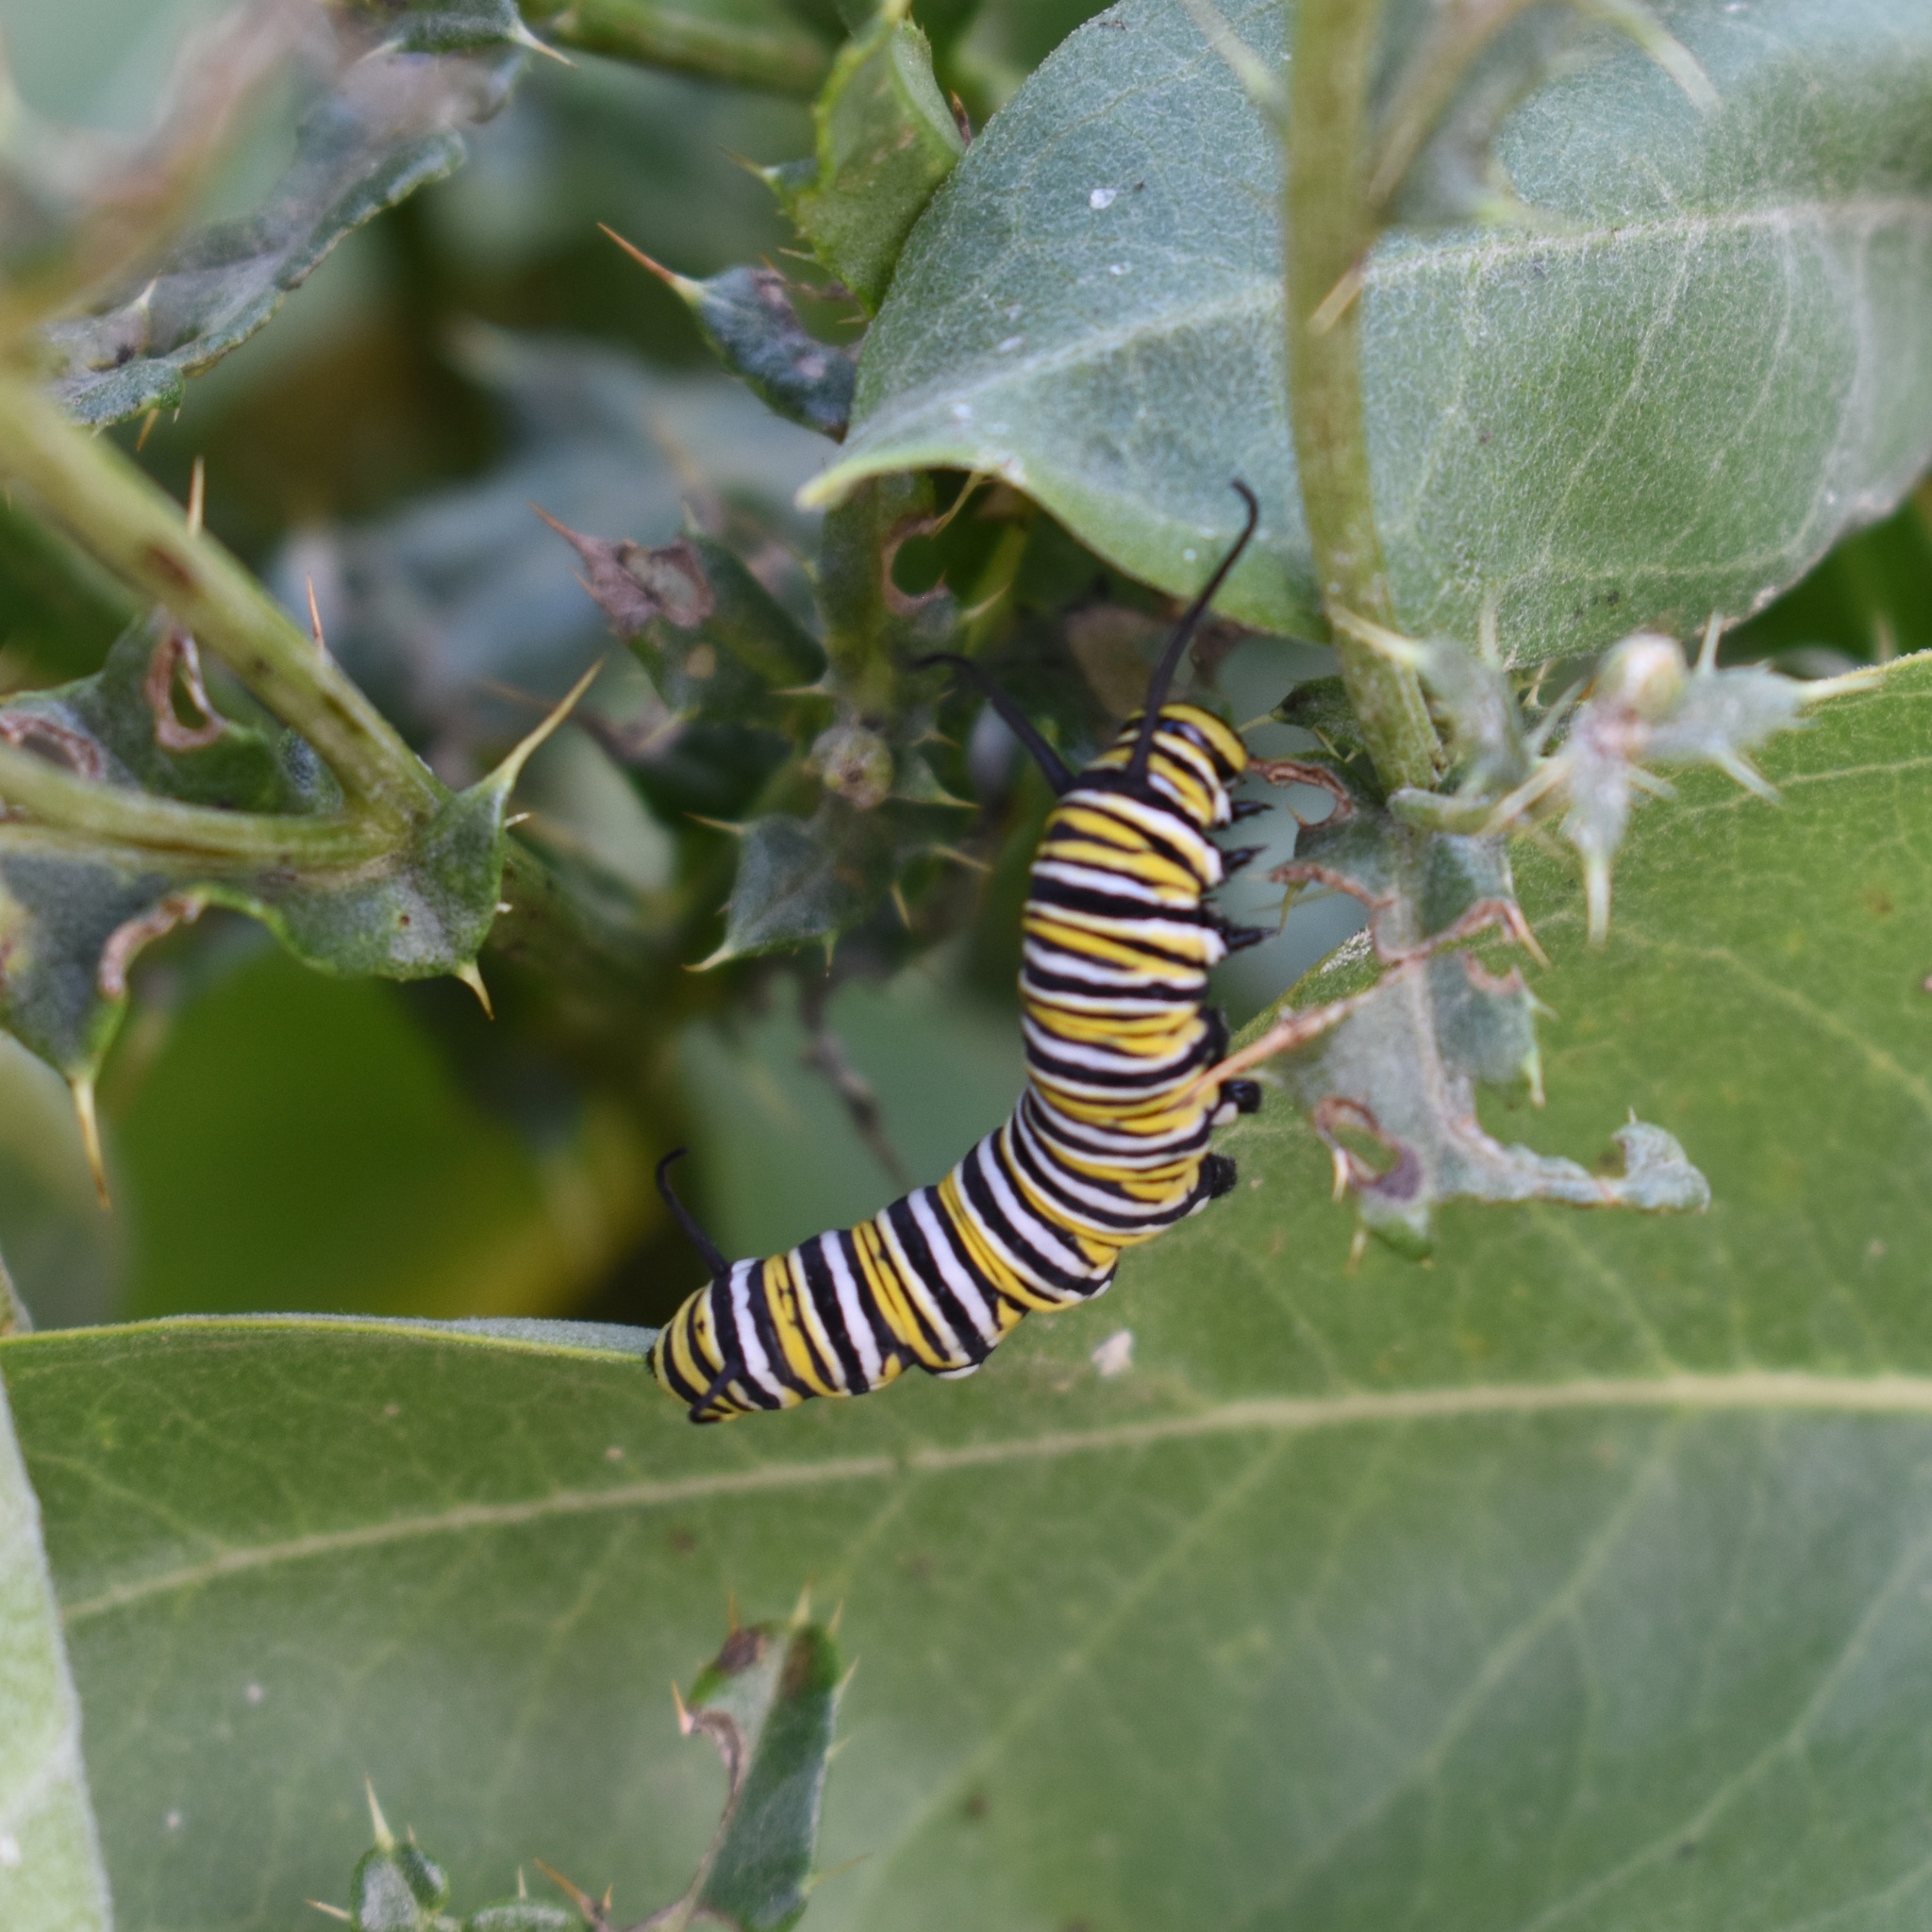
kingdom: Animalia
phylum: Arthropoda
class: Insecta
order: Lepidoptera
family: Nymphalidae
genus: Danaus
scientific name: Danaus plexippus
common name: Monarch
